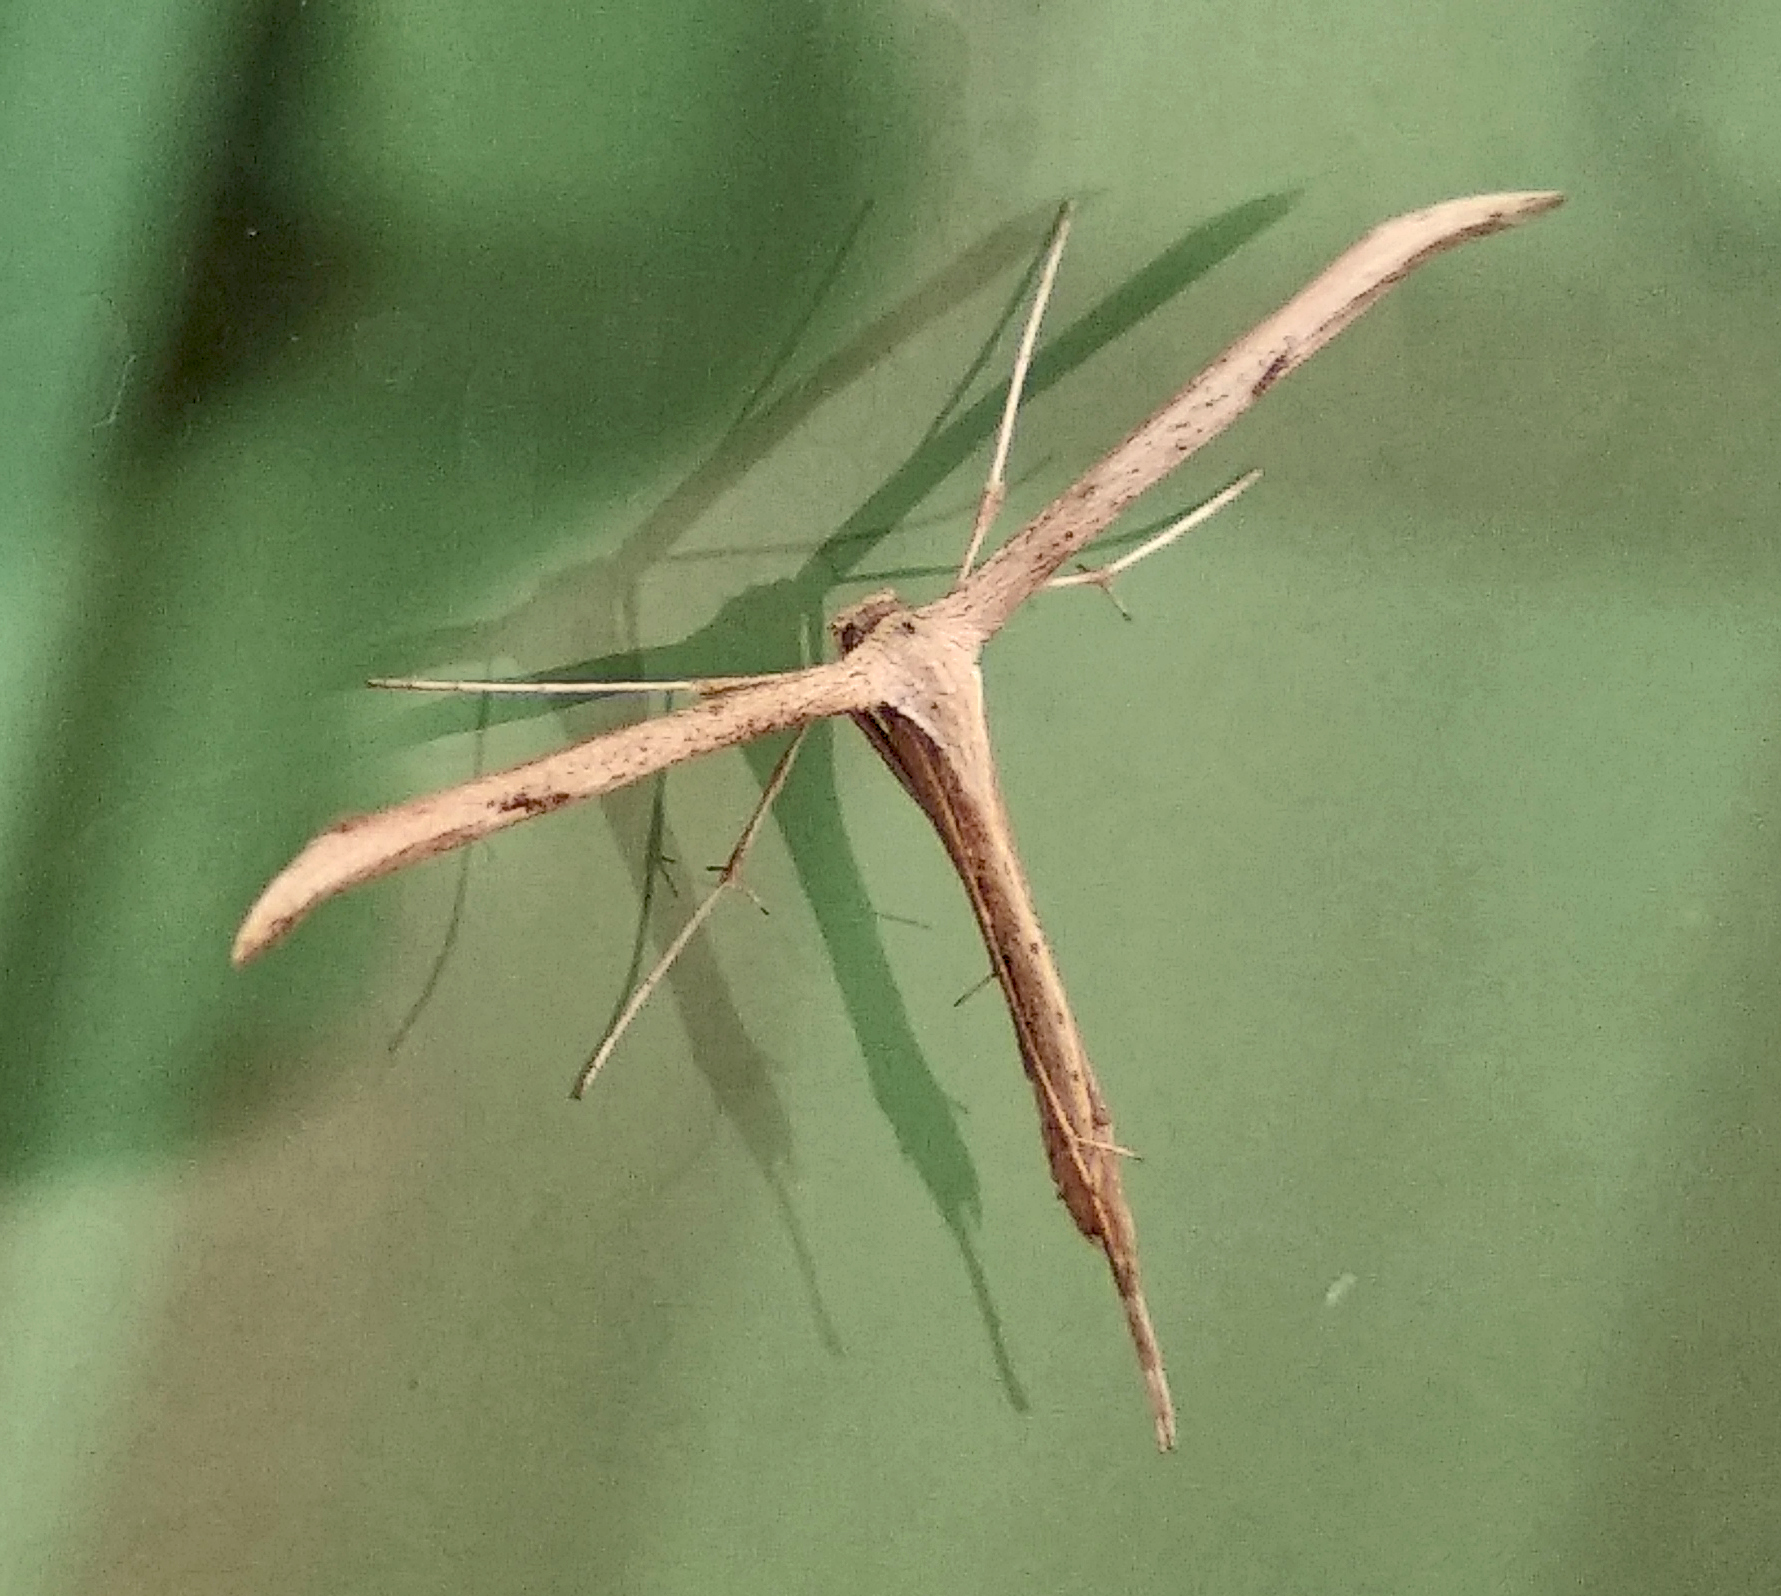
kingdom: Animalia
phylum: Arthropoda
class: Insecta
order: Lepidoptera
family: Pterophoridae
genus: Emmelina
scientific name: Emmelina monodactyla
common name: Common plume
